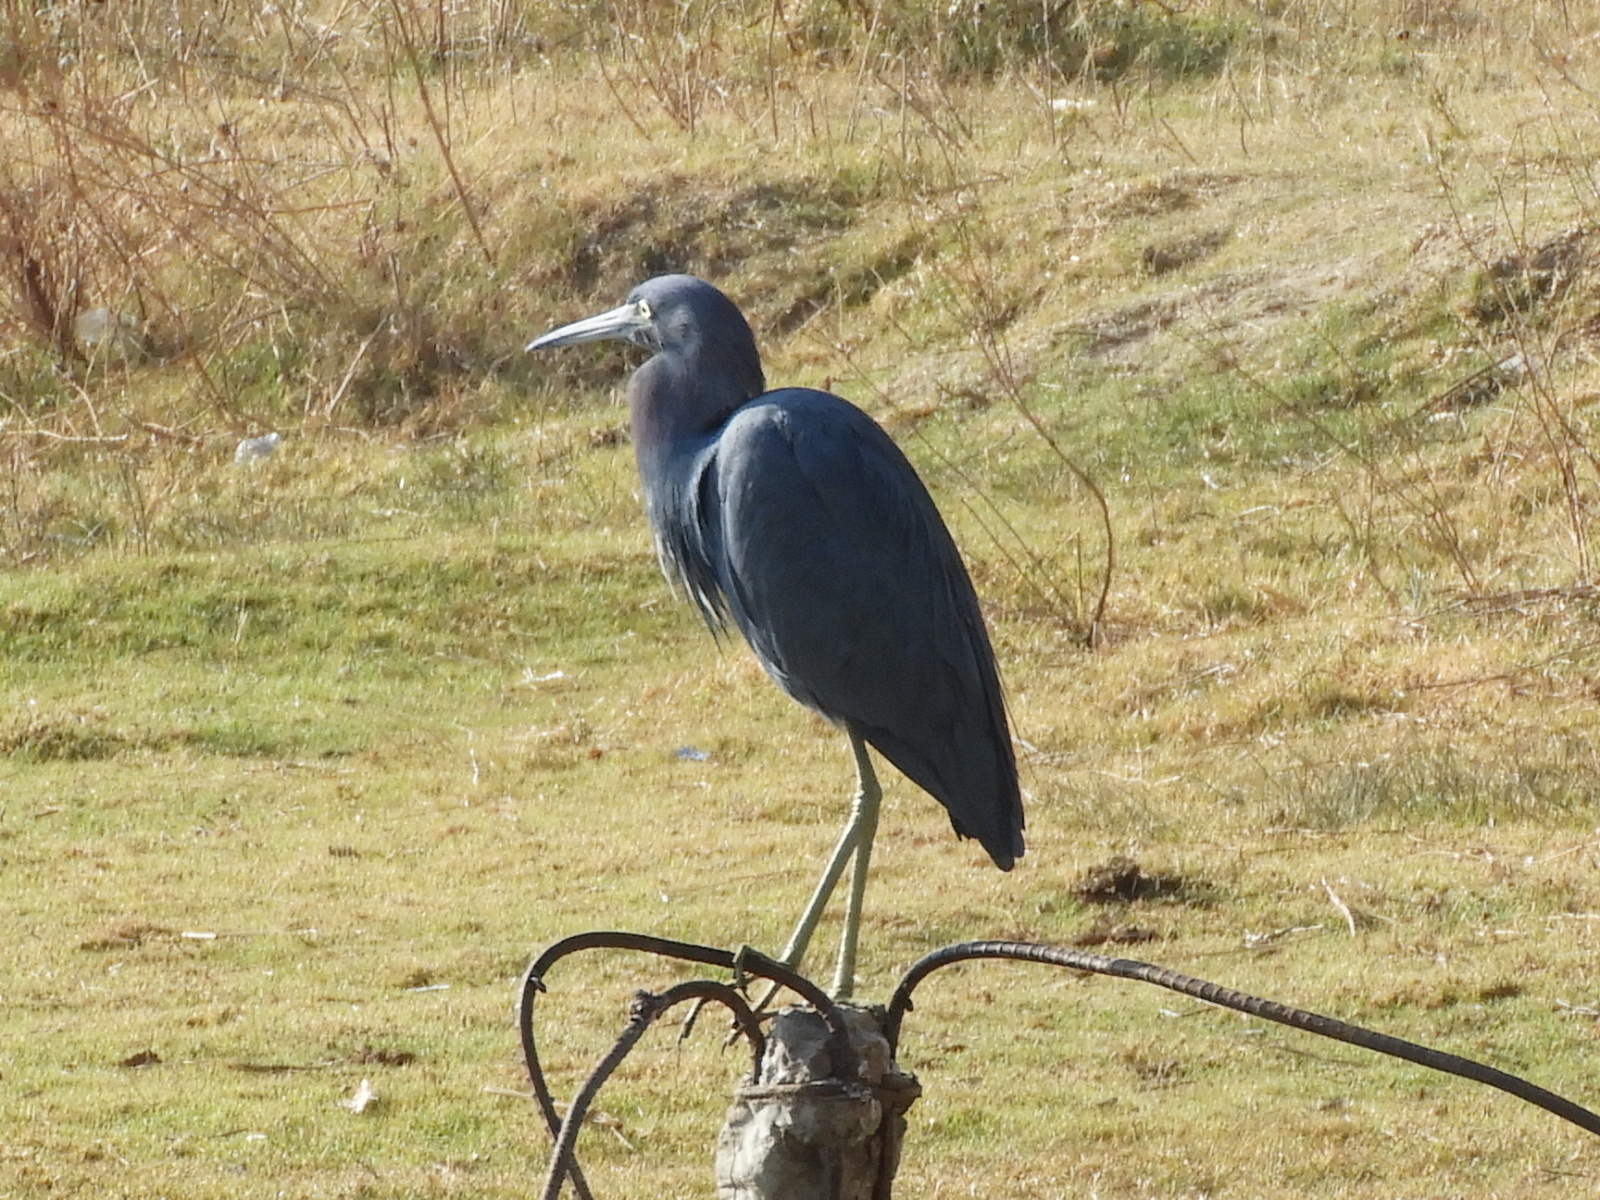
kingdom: Animalia
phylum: Chordata
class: Aves
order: Pelecaniformes
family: Ardeidae
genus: Egretta
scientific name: Egretta caerulea
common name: Little blue heron
